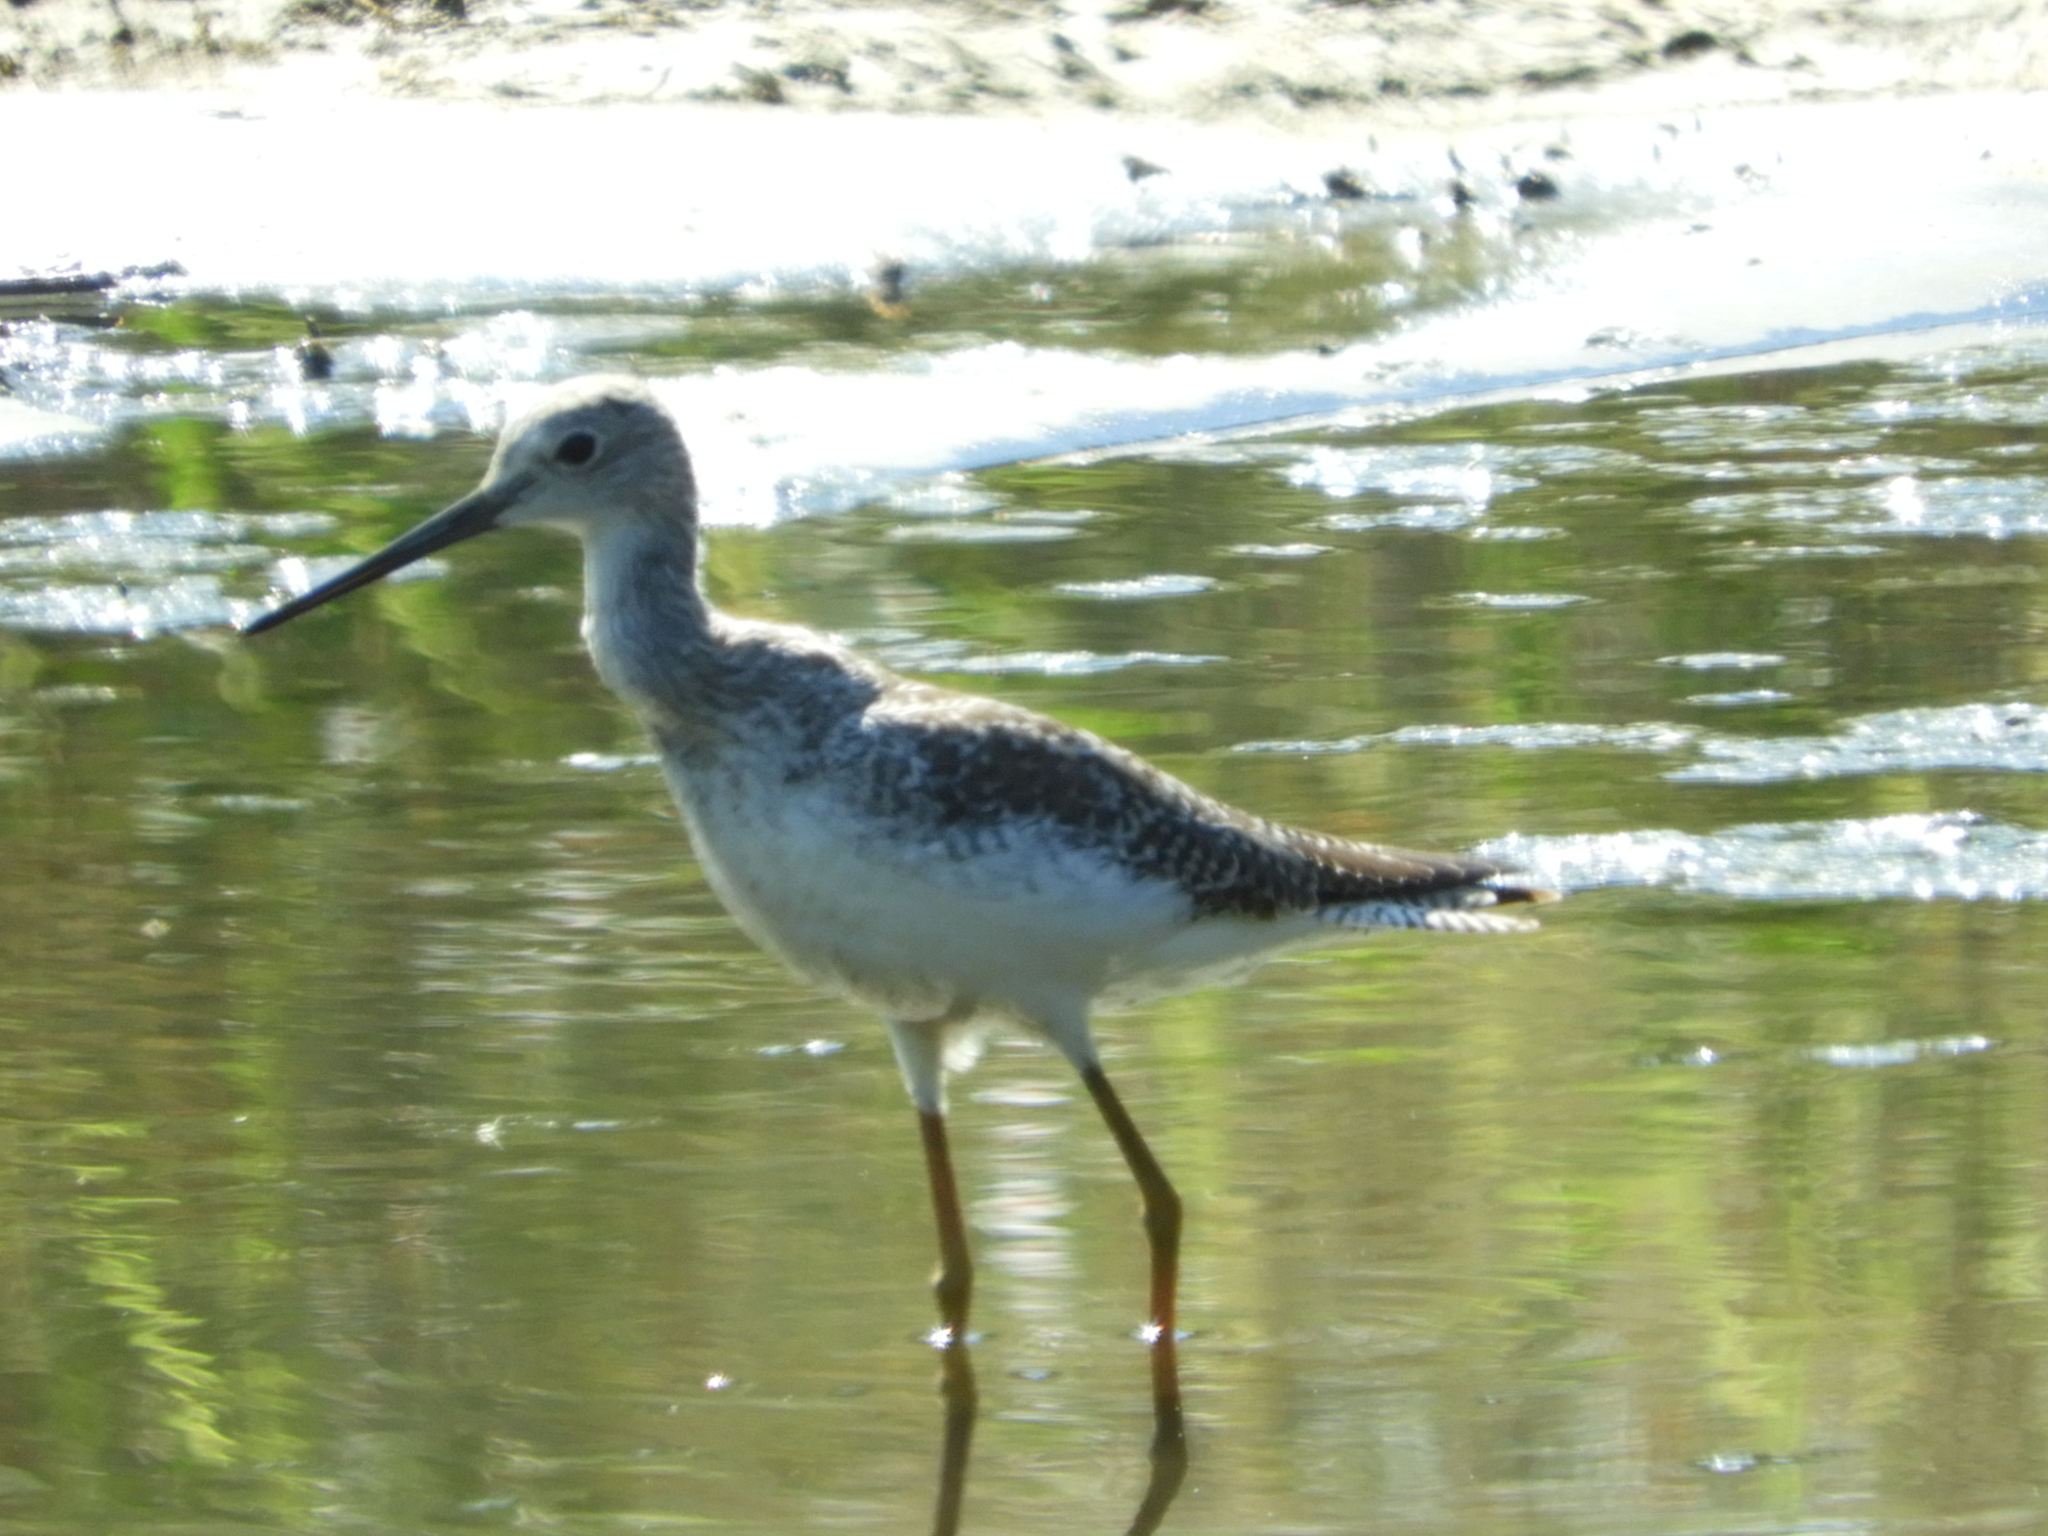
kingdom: Animalia
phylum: Chordata
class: Aves
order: Charadriiformes
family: Scolopacidae
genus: Tringa
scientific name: Tringa melanoleuca
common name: Greater yellowlegs
